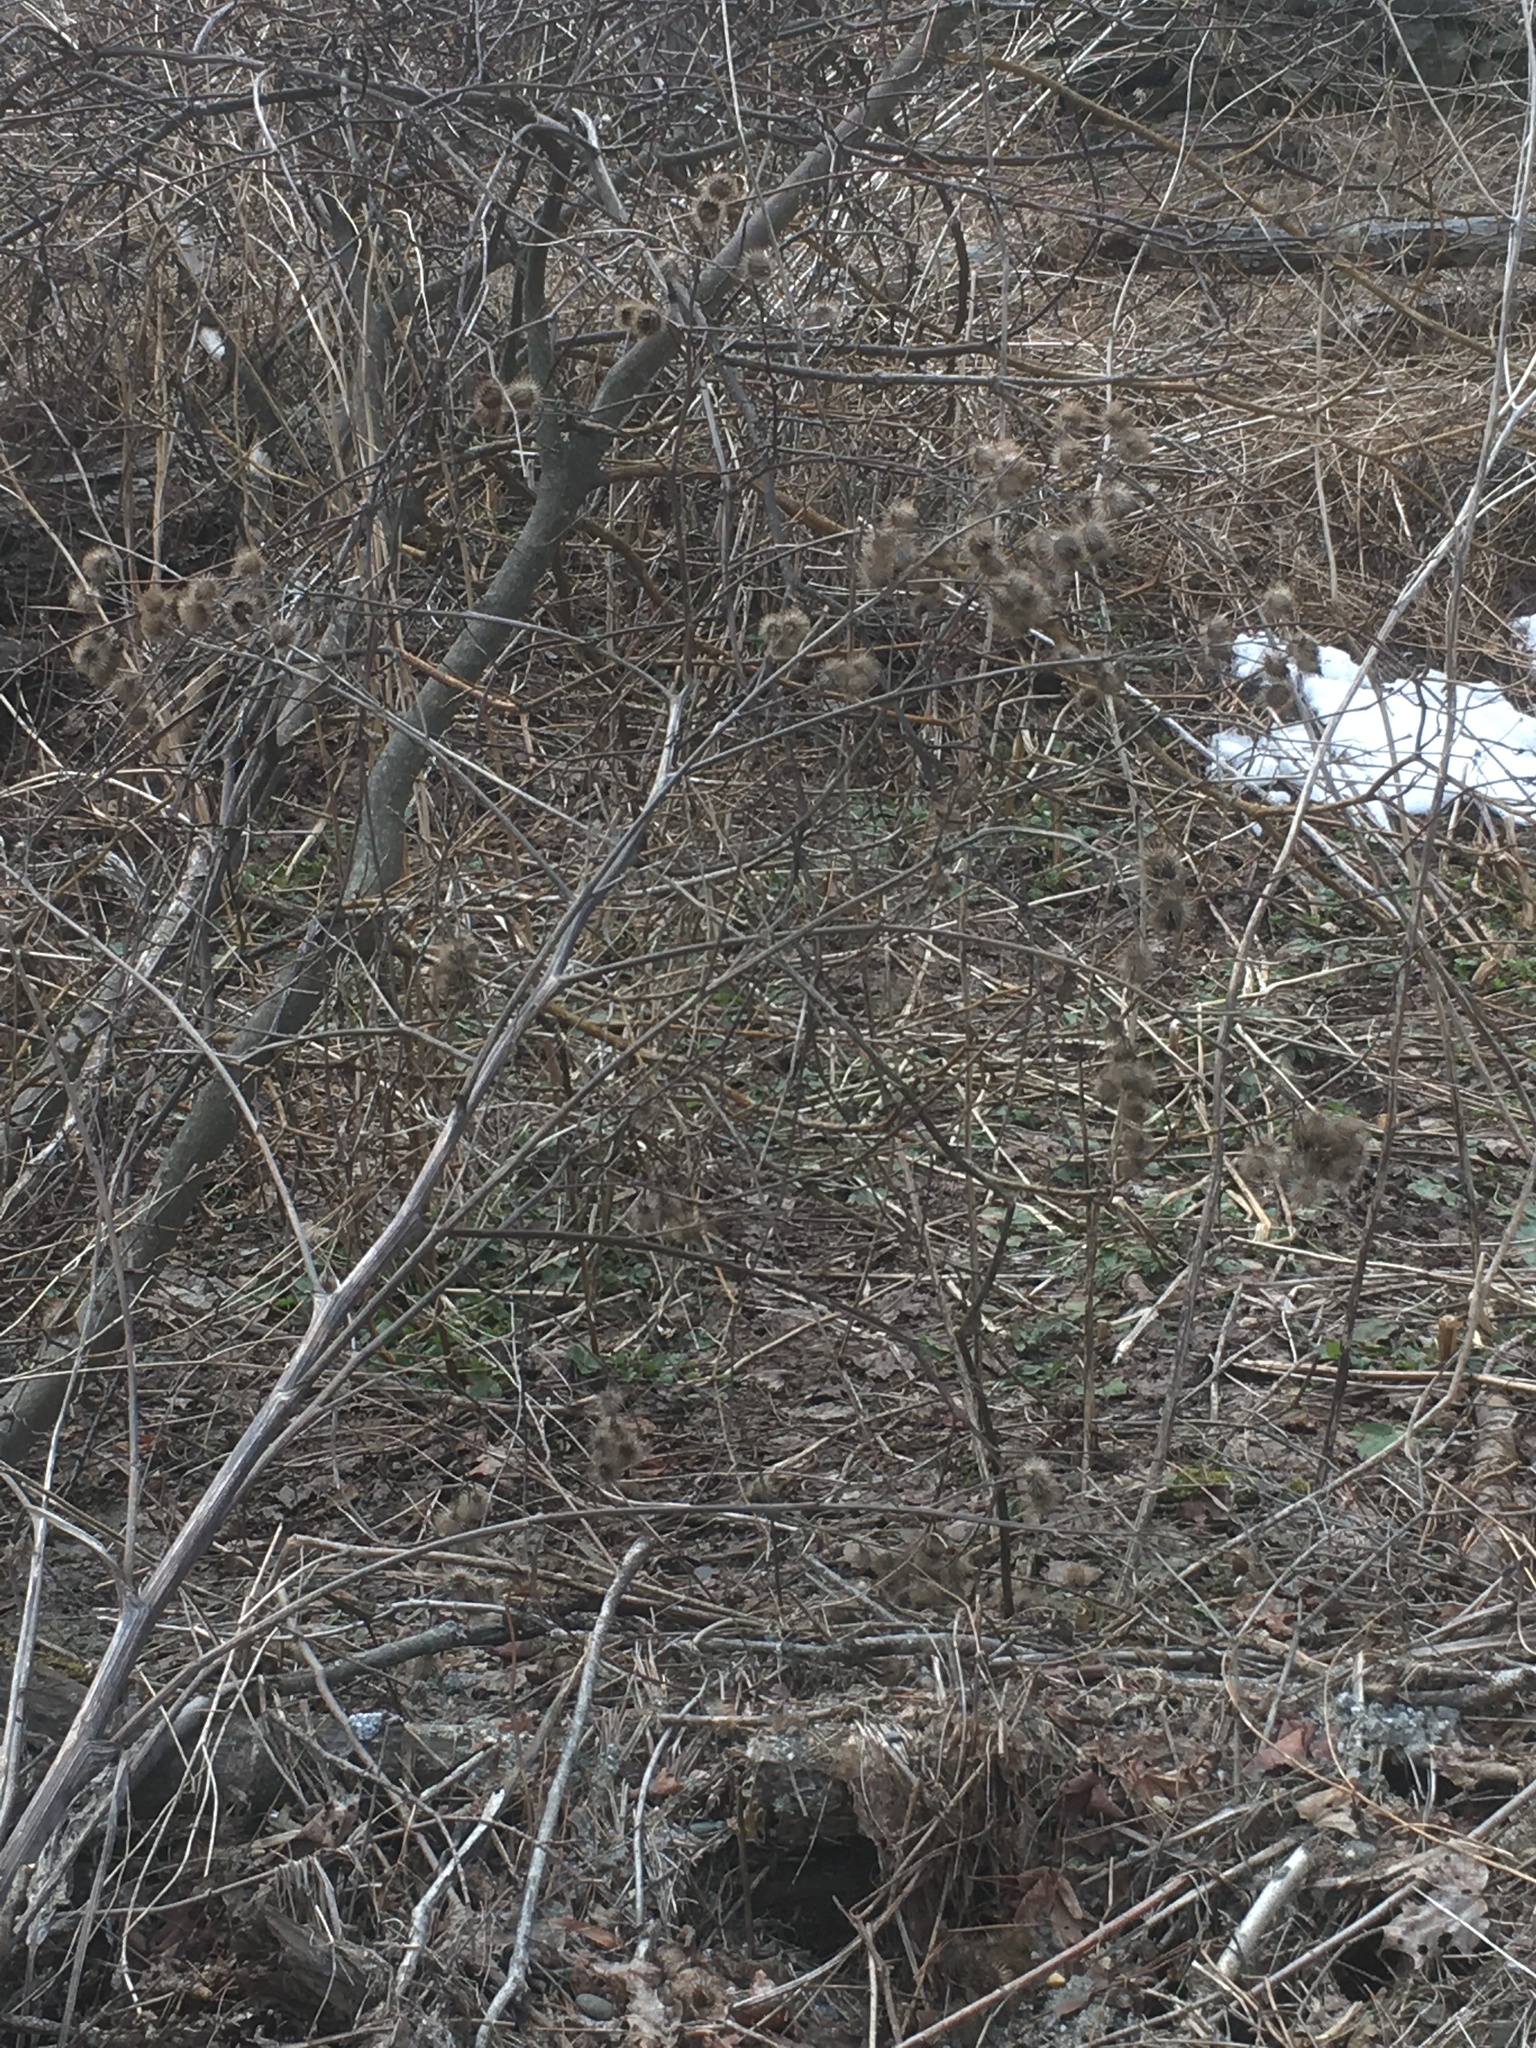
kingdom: Plantae
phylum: Tracheophyta
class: Magnoliopsida
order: Asterales
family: Asteraceae
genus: Arctium
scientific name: Arctium lappa
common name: Greater burdock
